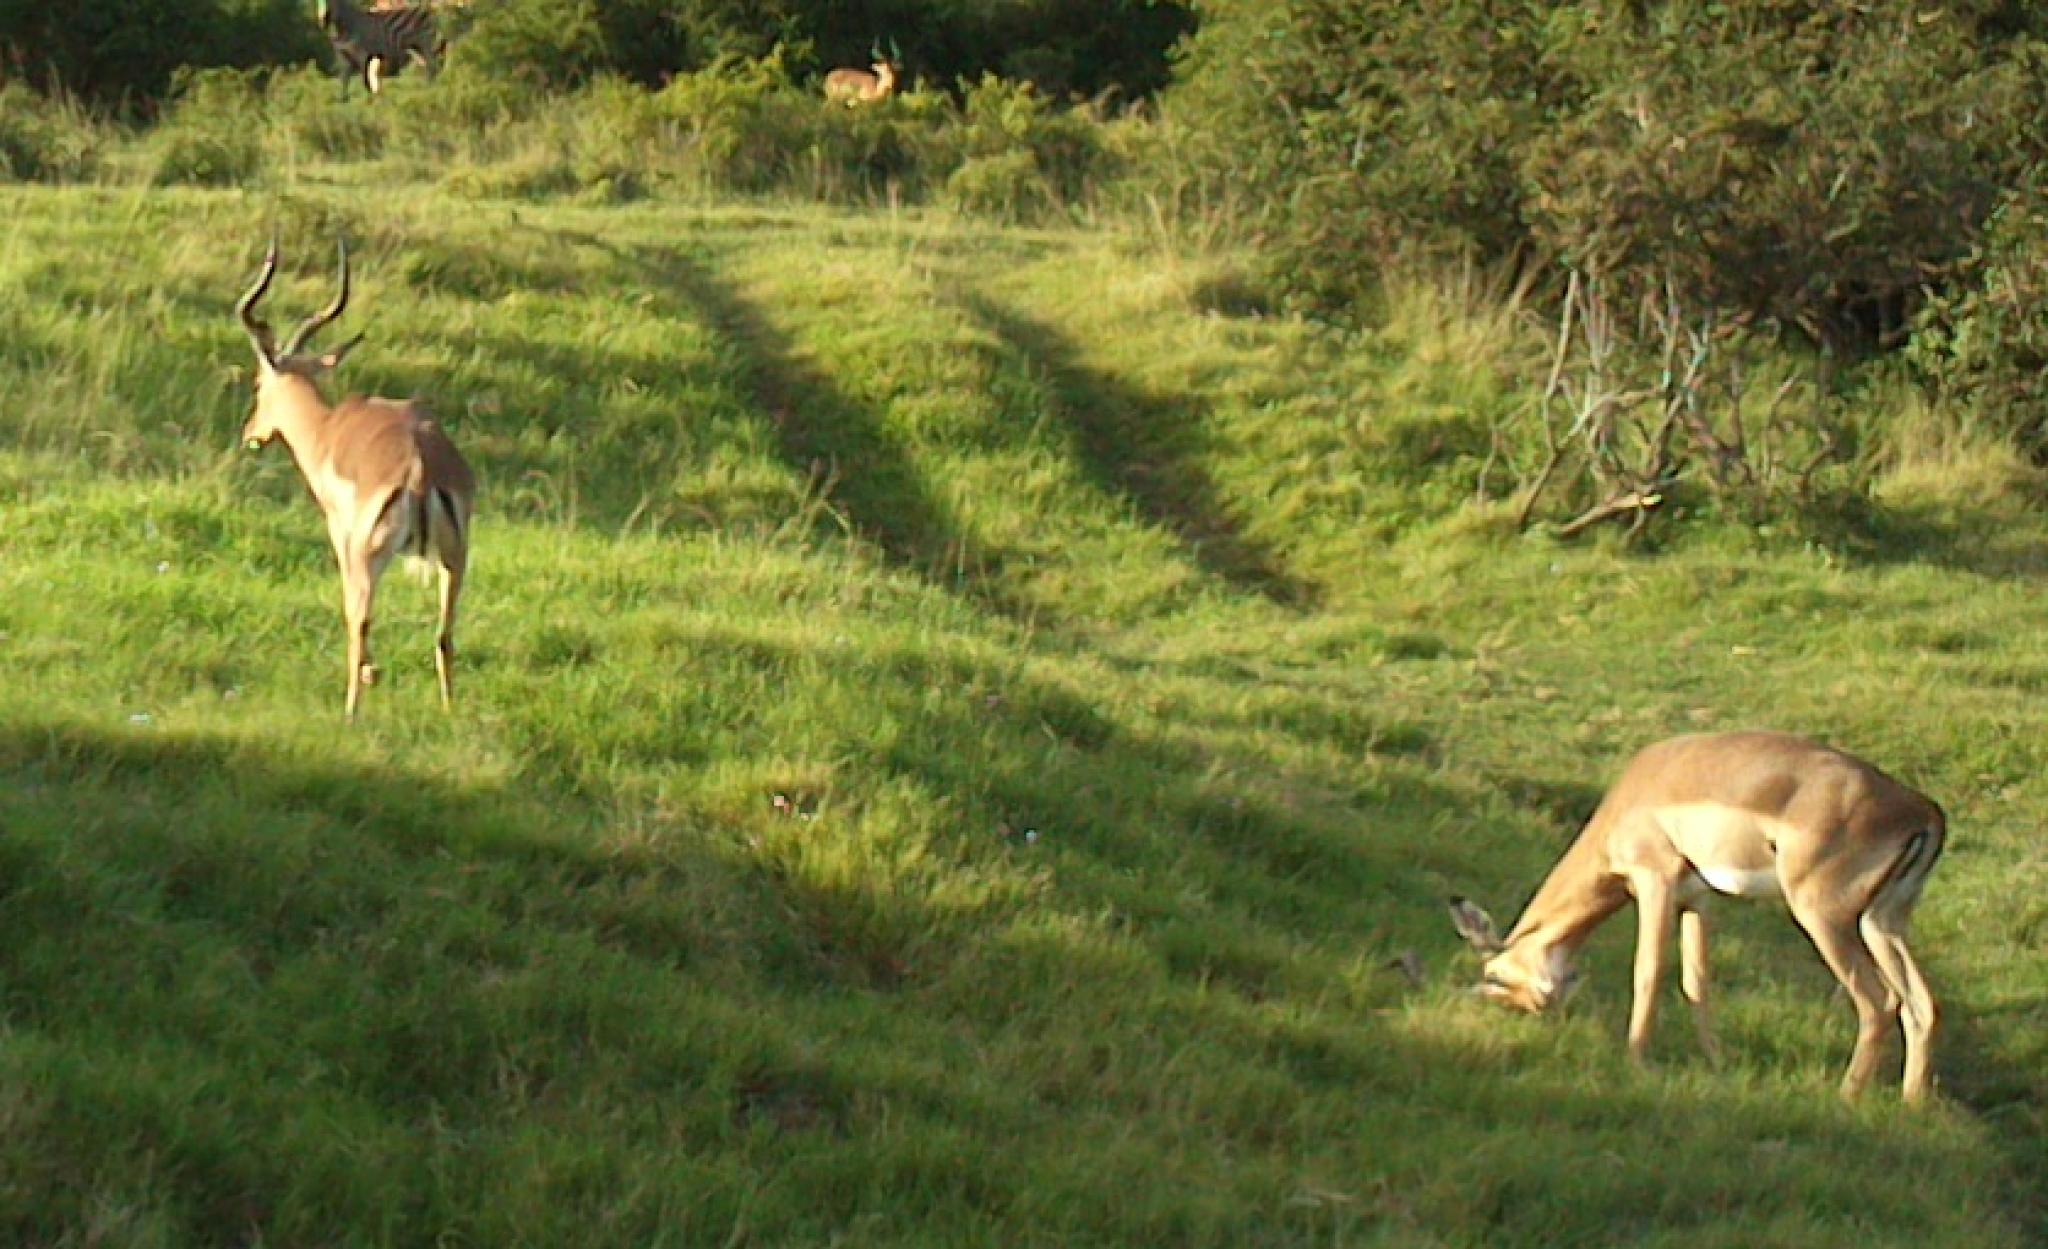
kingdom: Animalia
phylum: Chordata
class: Mammalia
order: Artiodactyla
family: Bovidae
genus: Aepyceros
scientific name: Aepyceros melampus
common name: Impala
